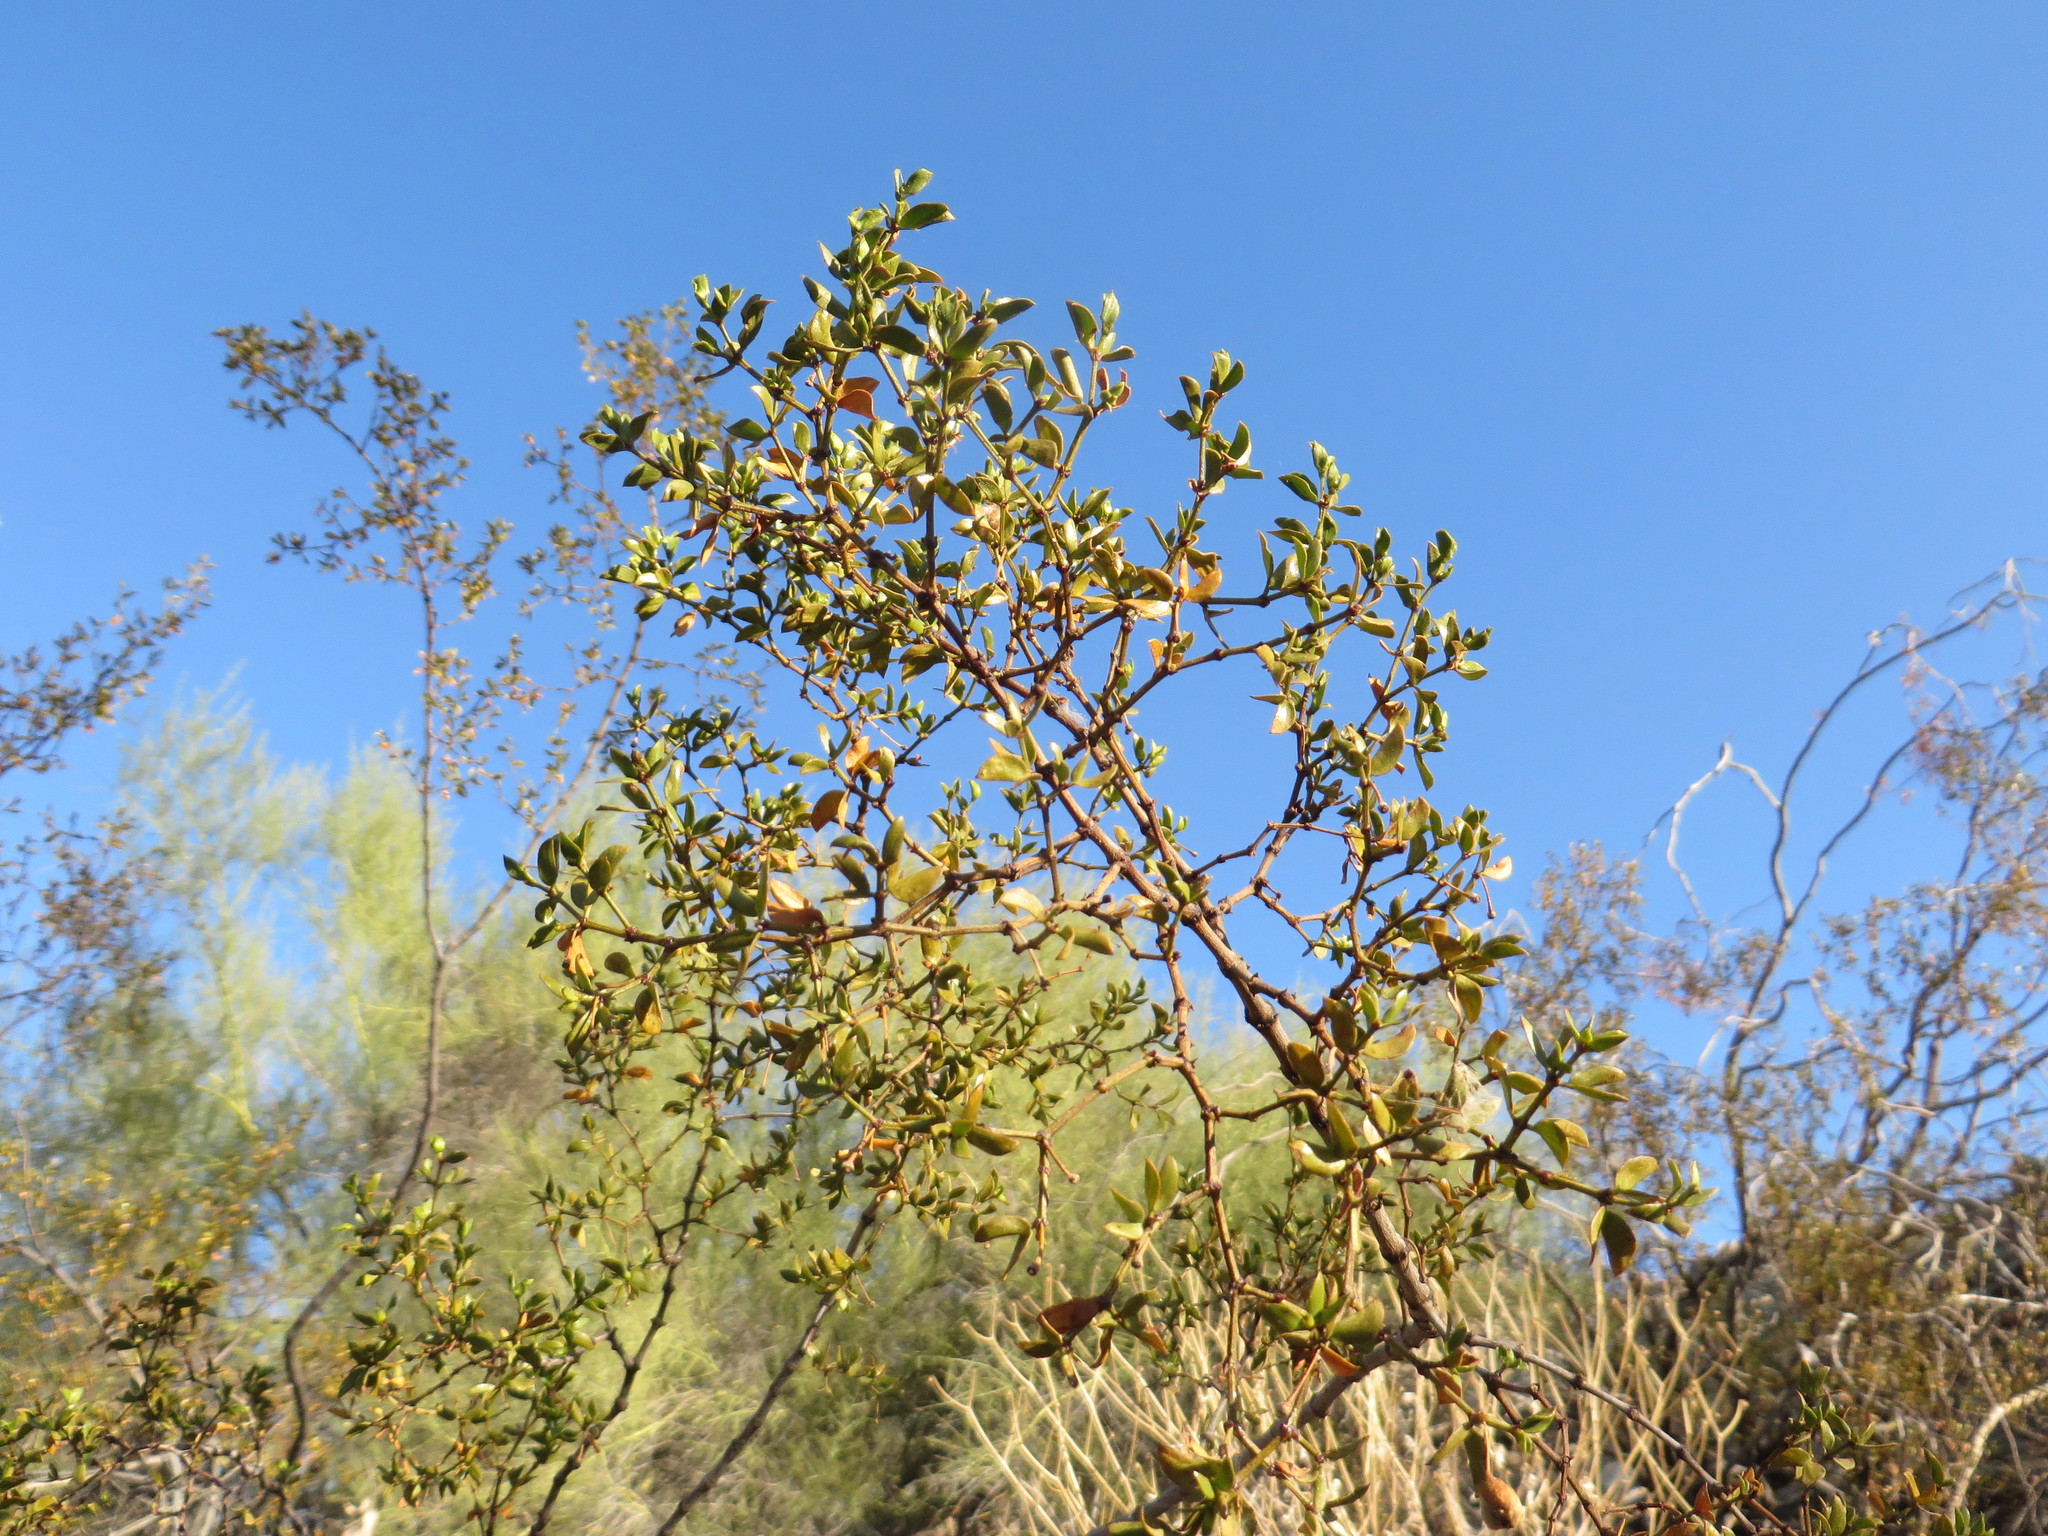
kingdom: Plantae
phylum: Tracheophyta
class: Magnoliopsida
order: Zygophyllales
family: Zygophyllaceae
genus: Larrea
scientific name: Larrea tridentata
